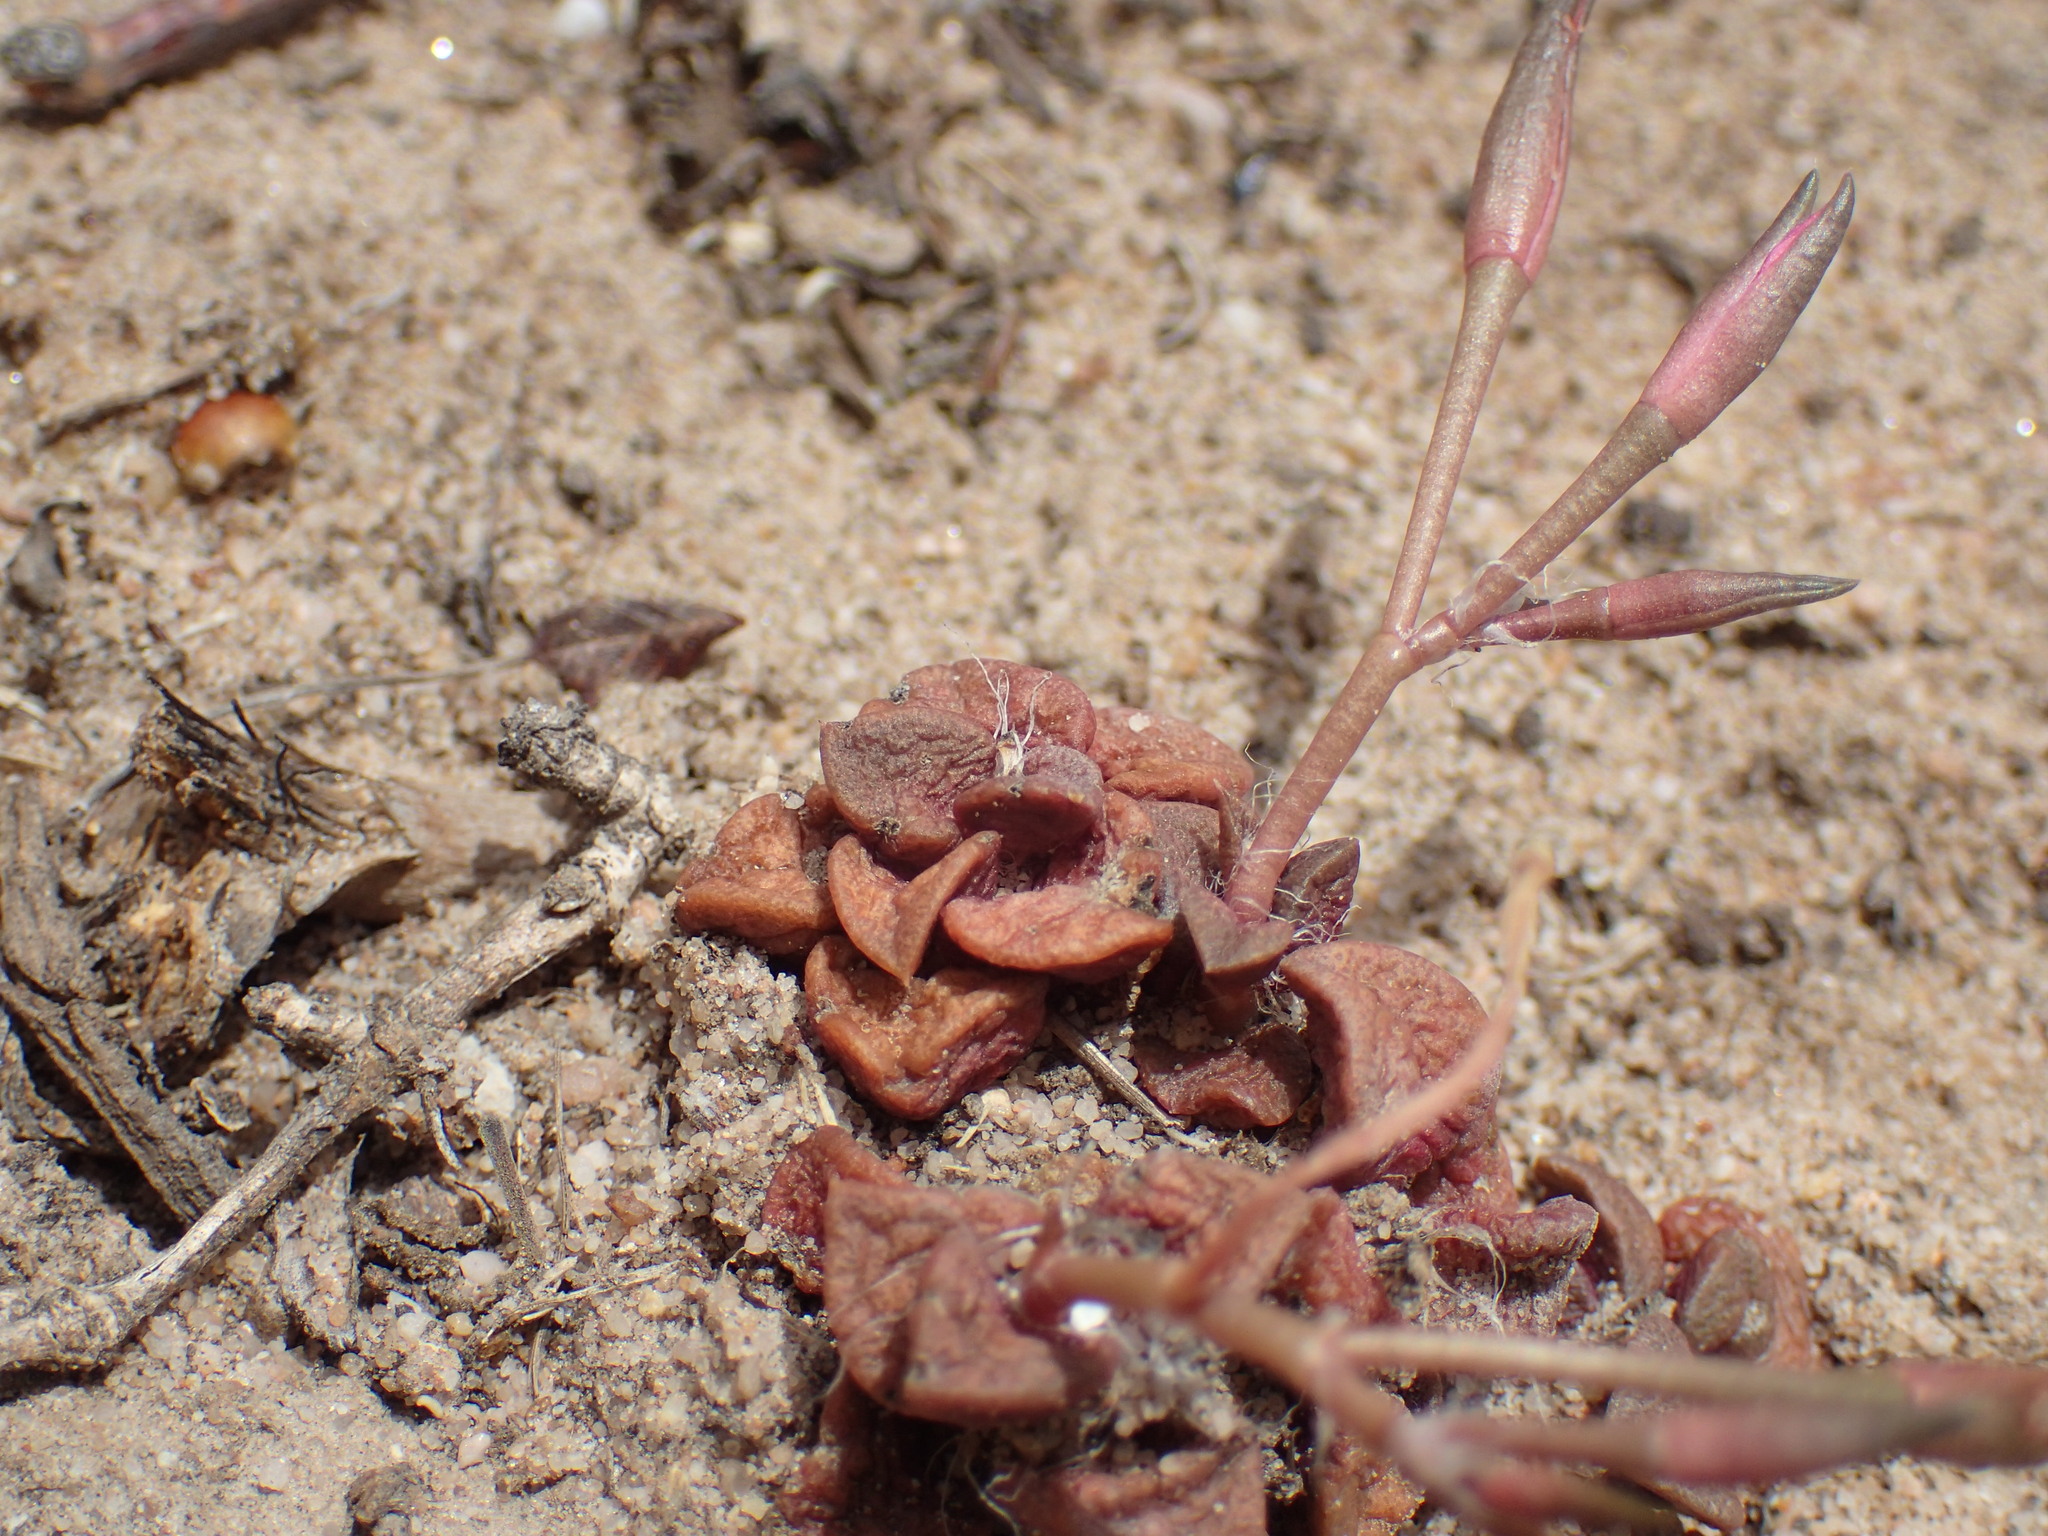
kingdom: Plantae
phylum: Tracheophyta
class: Magnoliopsida
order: Caryophyllales
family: Anacampserotaceae
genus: Anacampseros
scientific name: Anacampseros retusa
